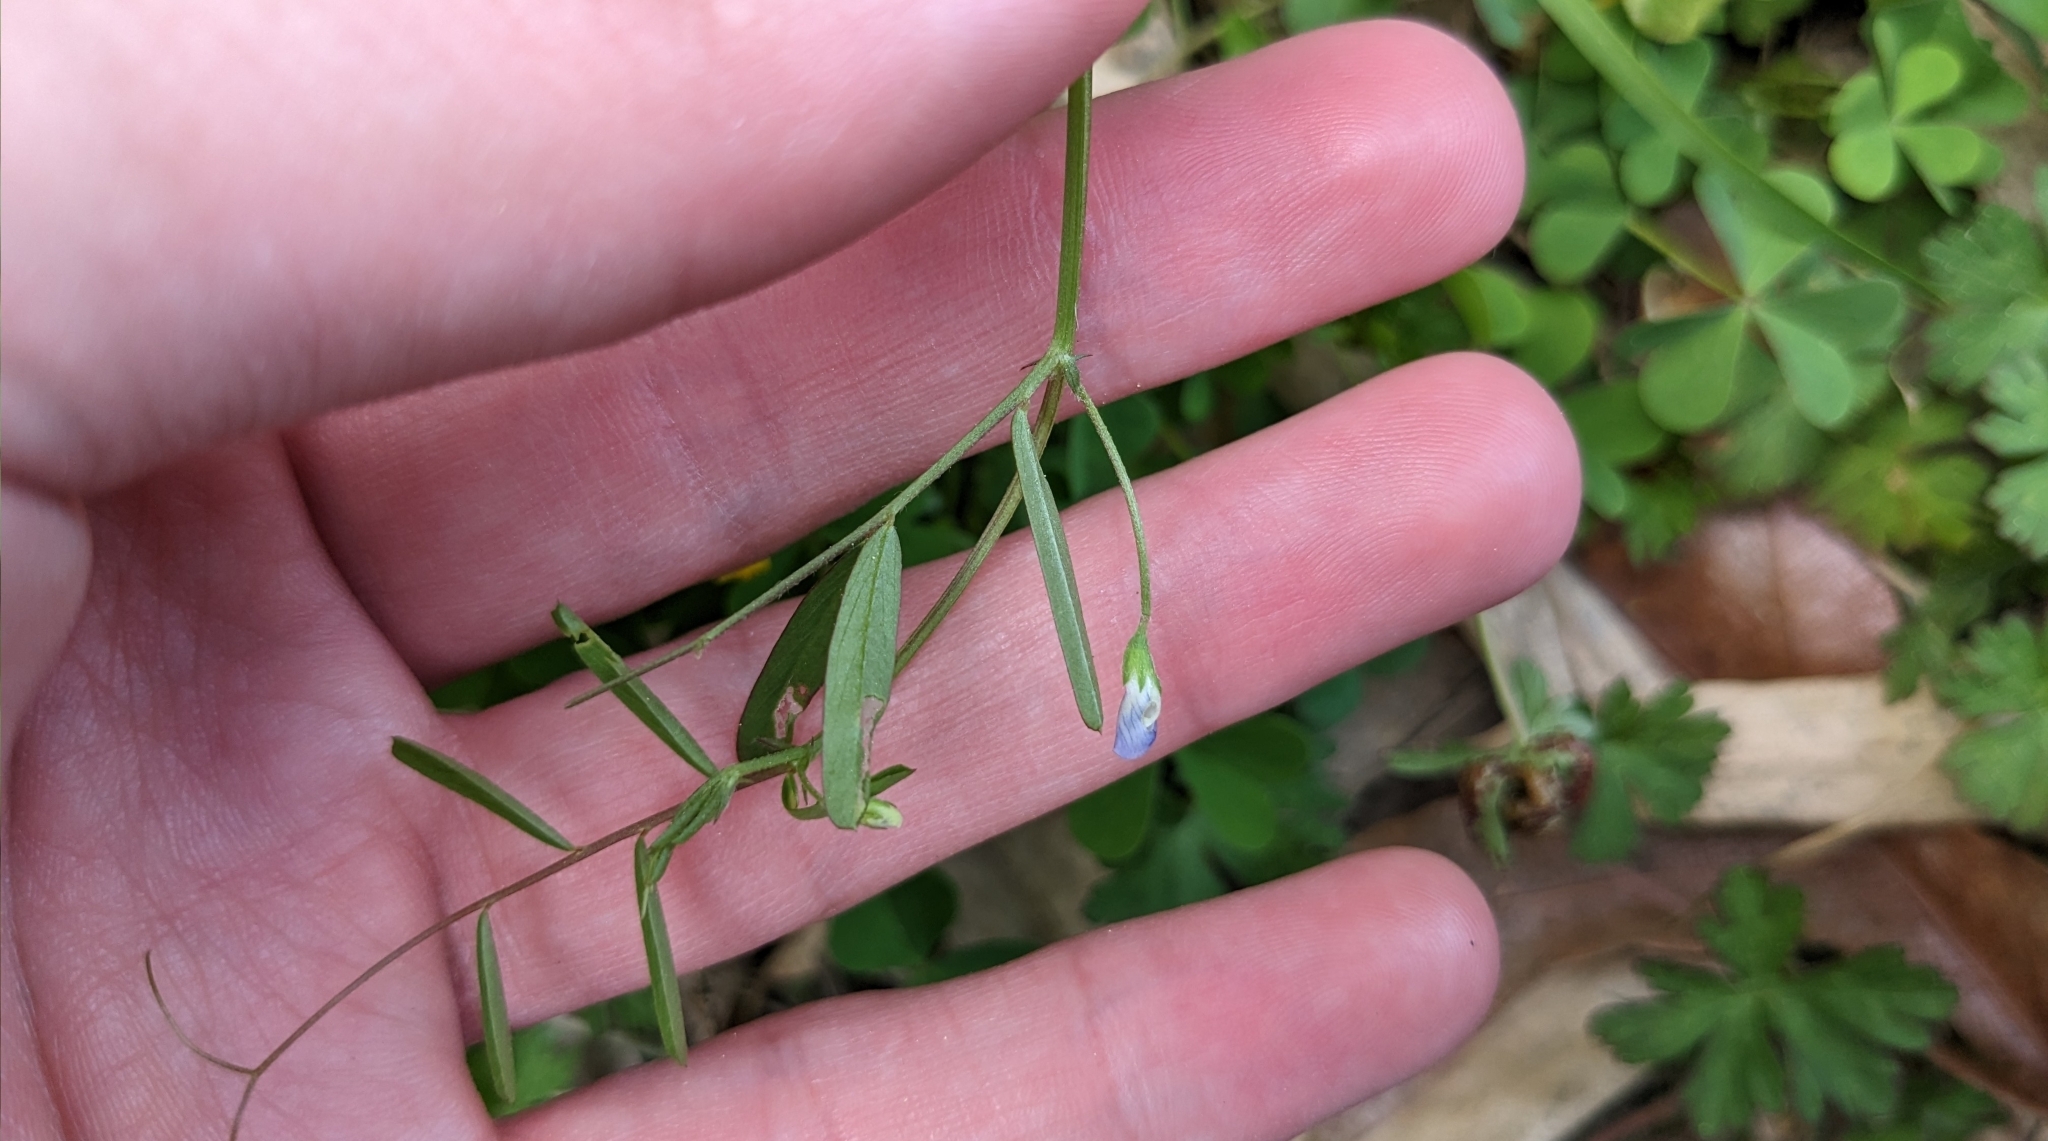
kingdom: Plantae
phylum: Tracheophyta
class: Magnoliopsida
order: Fabales
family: Fabaceae
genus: Vicia
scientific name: Vicia minutiflora
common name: Pygmy-flower vetch
